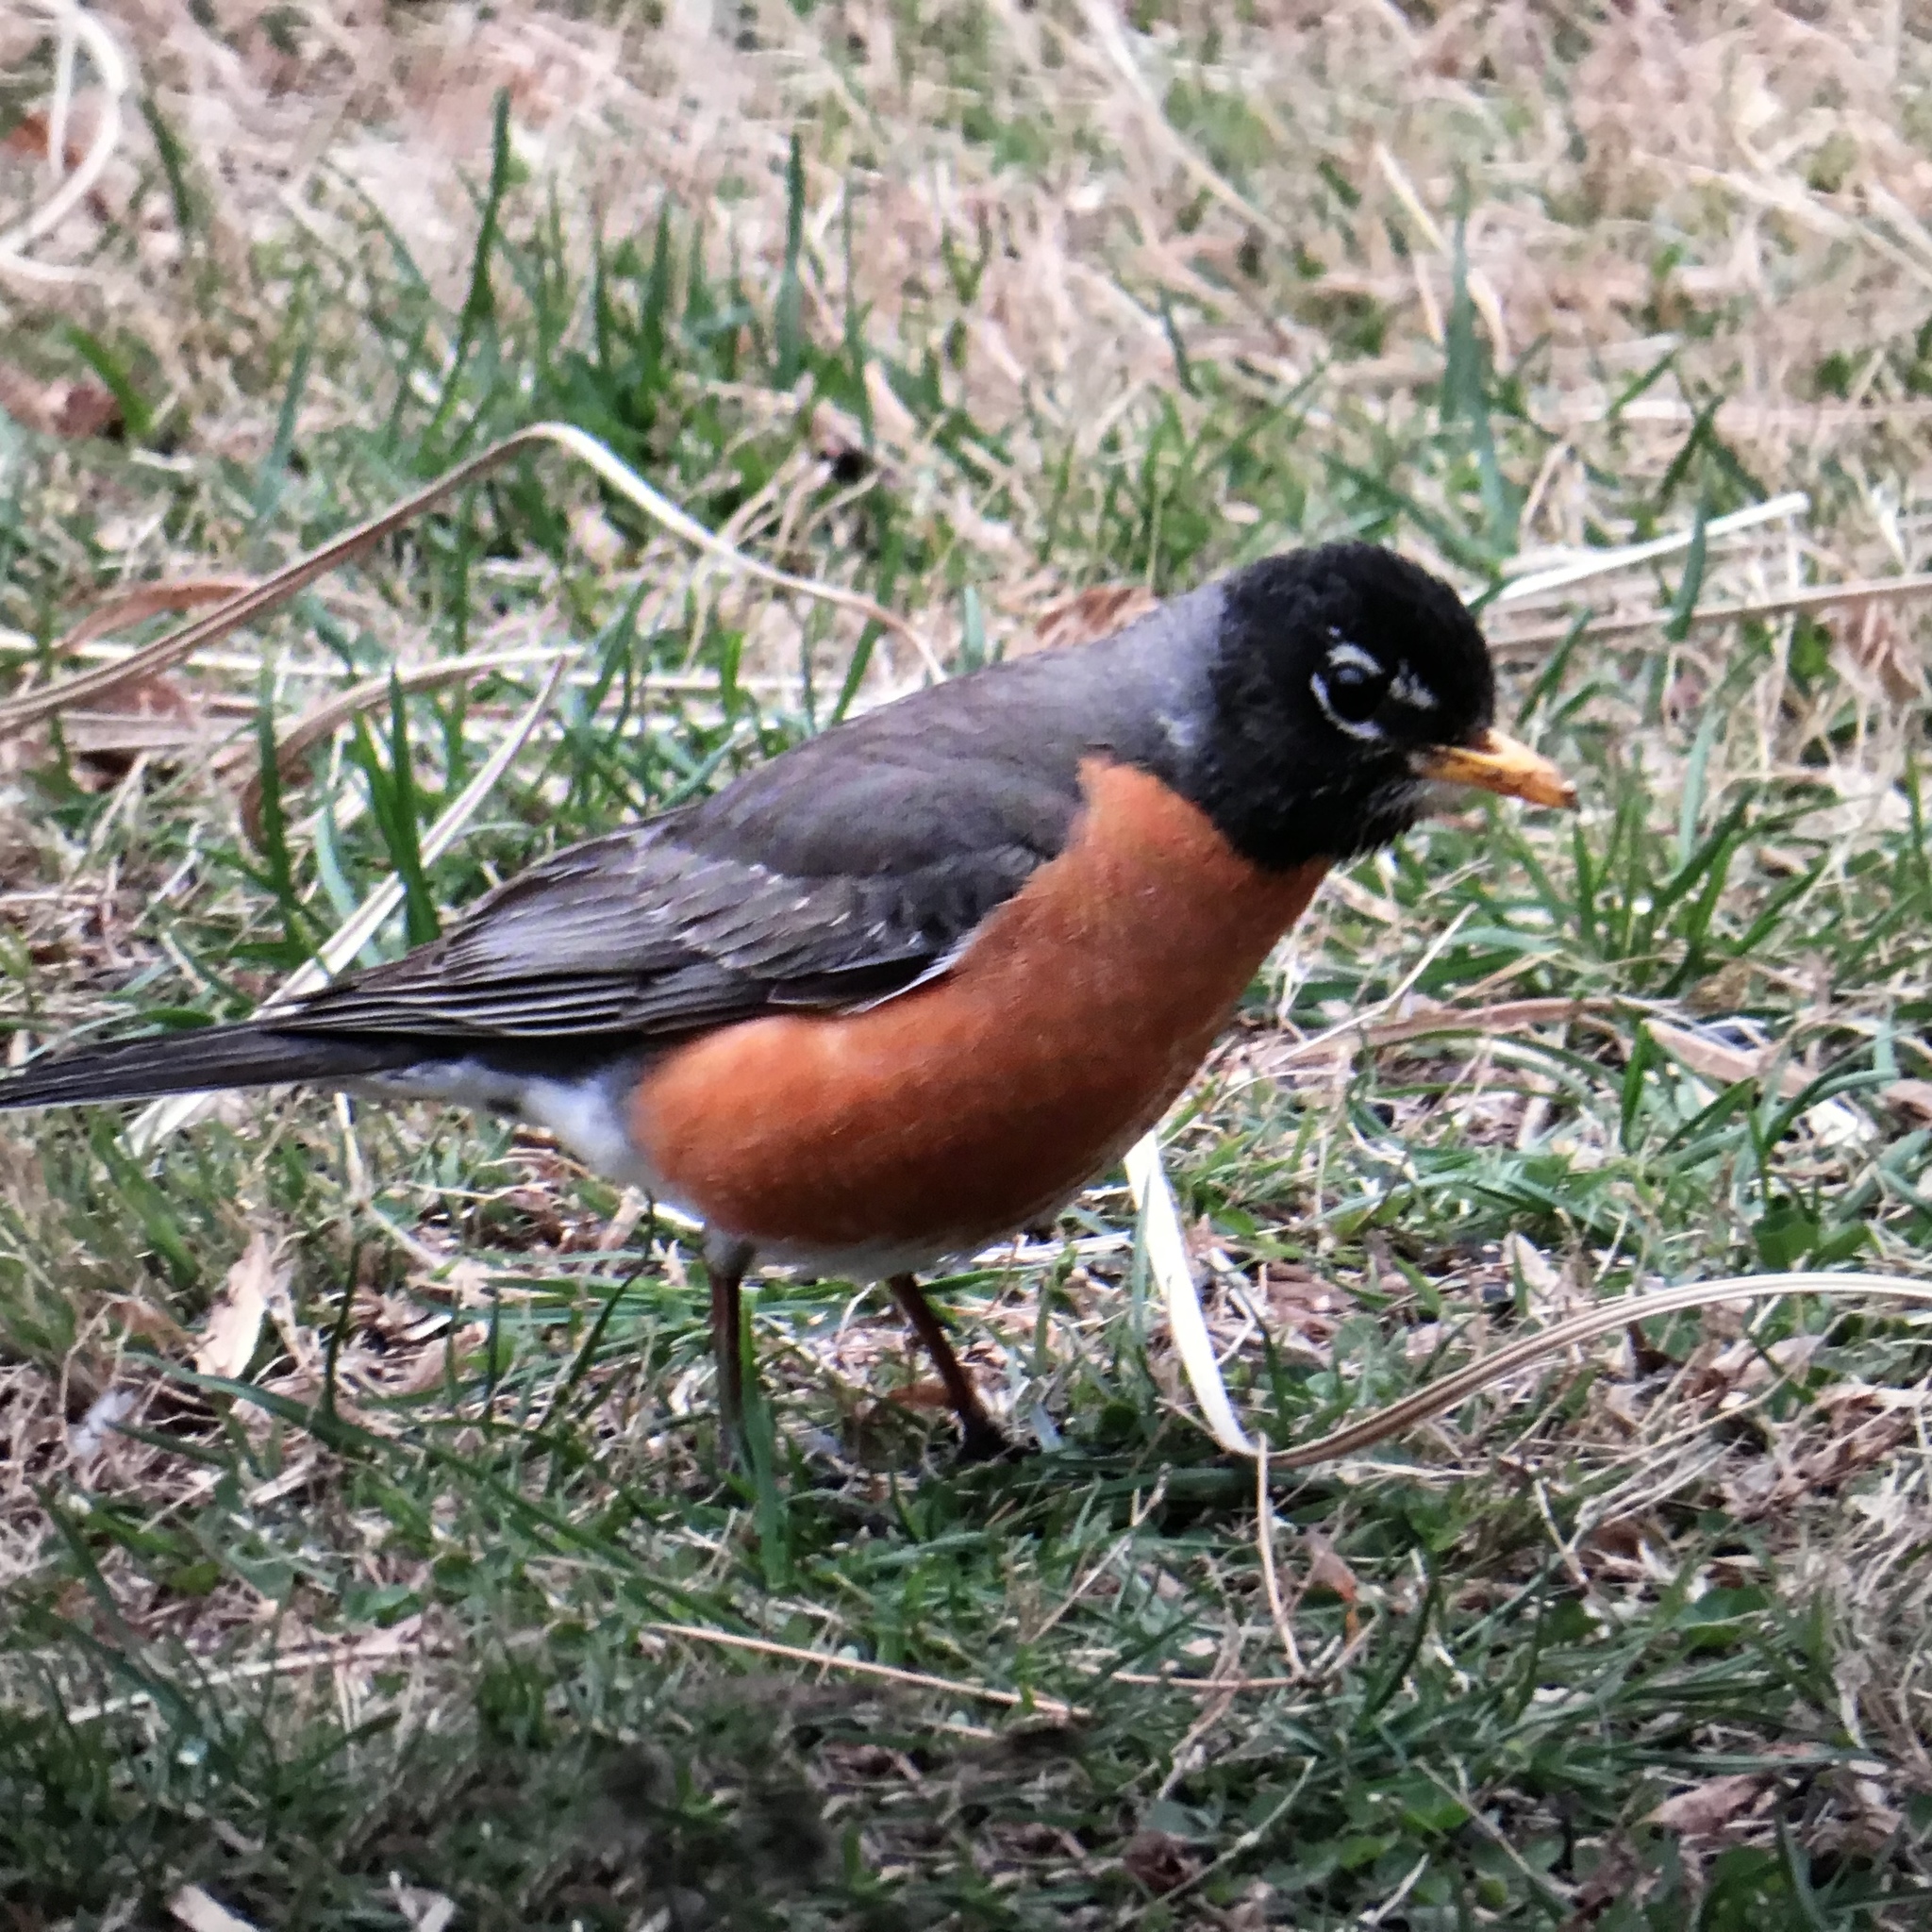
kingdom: Animalia
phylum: Chordata
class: Aves
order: Passeriformes
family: Turdidae
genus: Turdus
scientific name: Turdus migratorius
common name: American robin
